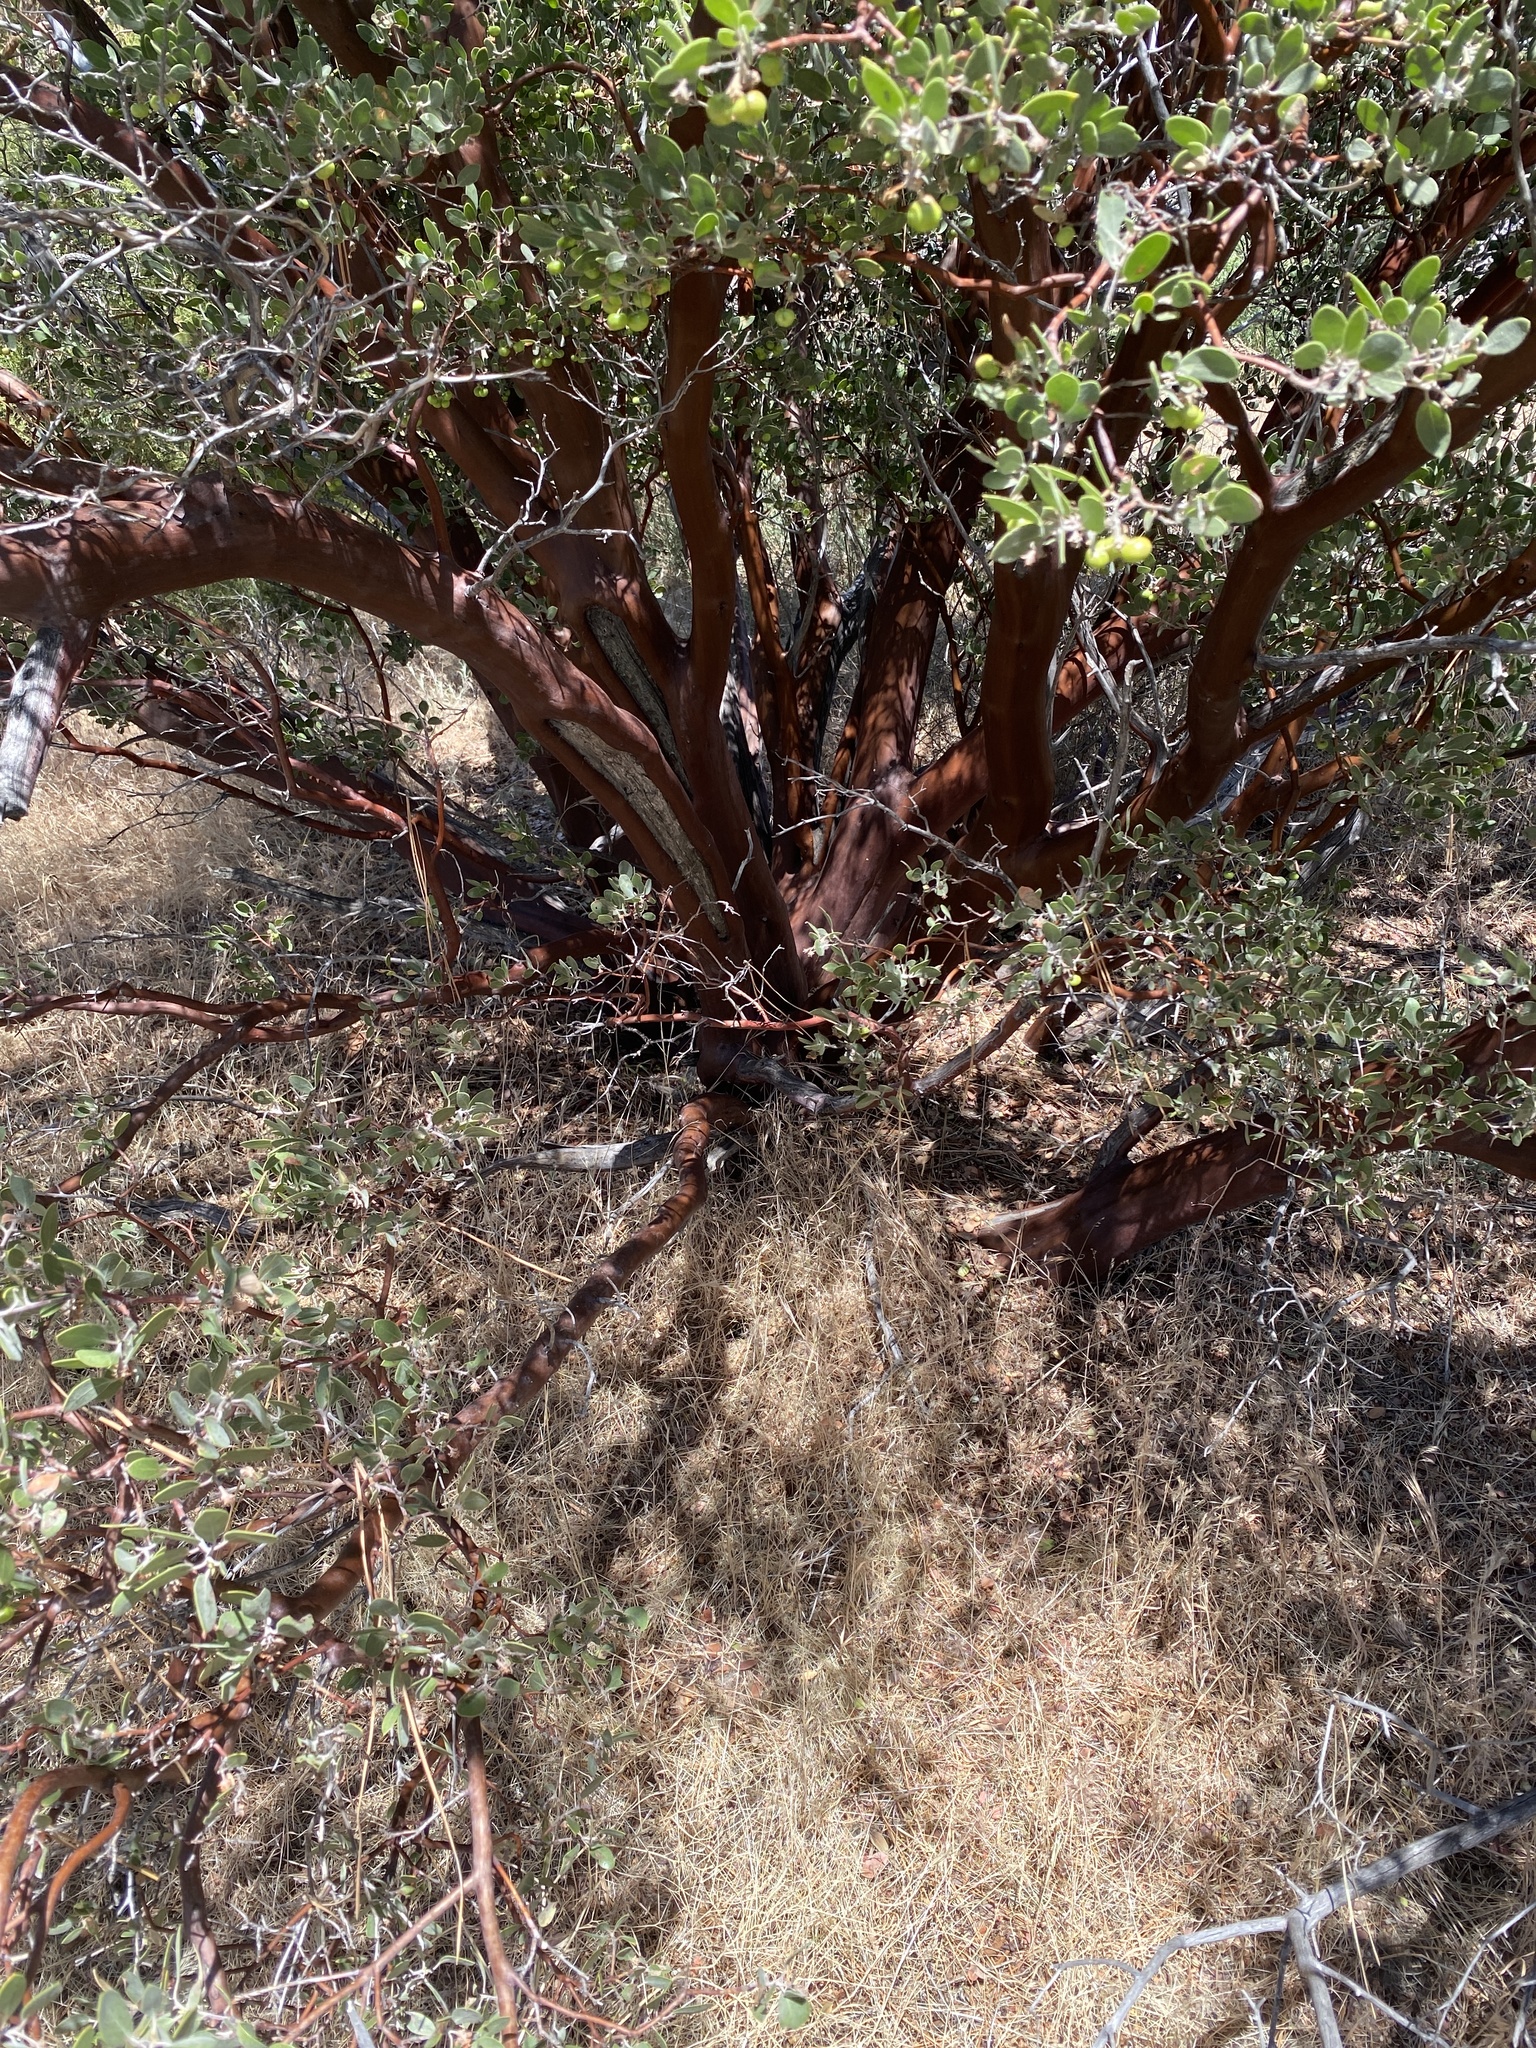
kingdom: Plantae
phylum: Tracheophyta
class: Magnoliopsida
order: Ericales
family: Ericaceae
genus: Arctostaphylos
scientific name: Arctostaphylos pungens
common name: Mexican manzanita
